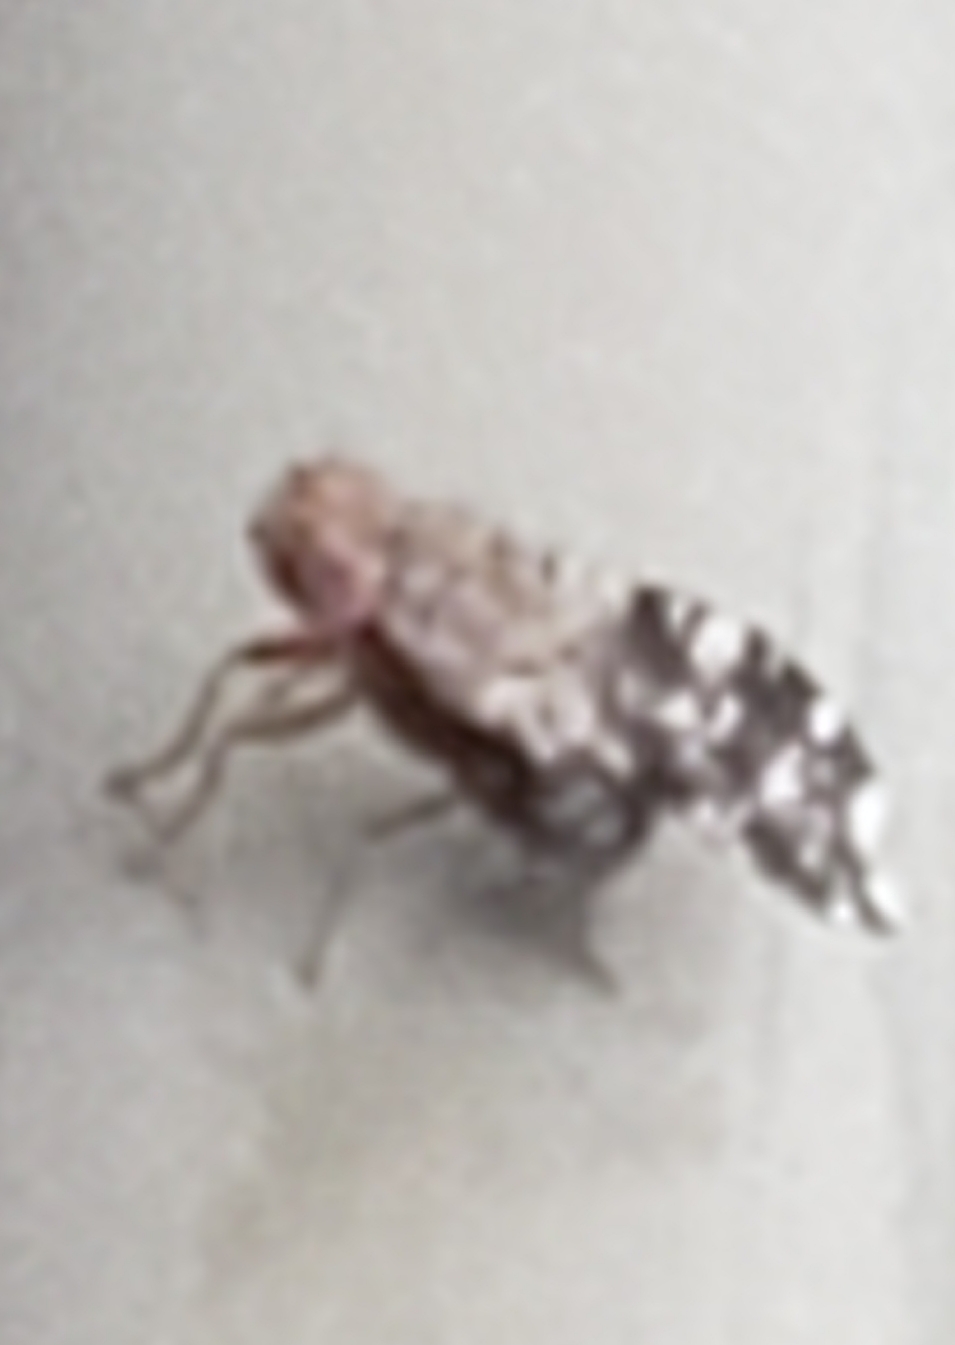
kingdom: Animalia
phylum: Arthropoda
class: Insecta
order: Diptera
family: Heleomyzidae
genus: Trixoscelis
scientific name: Trixoscelis ornata
